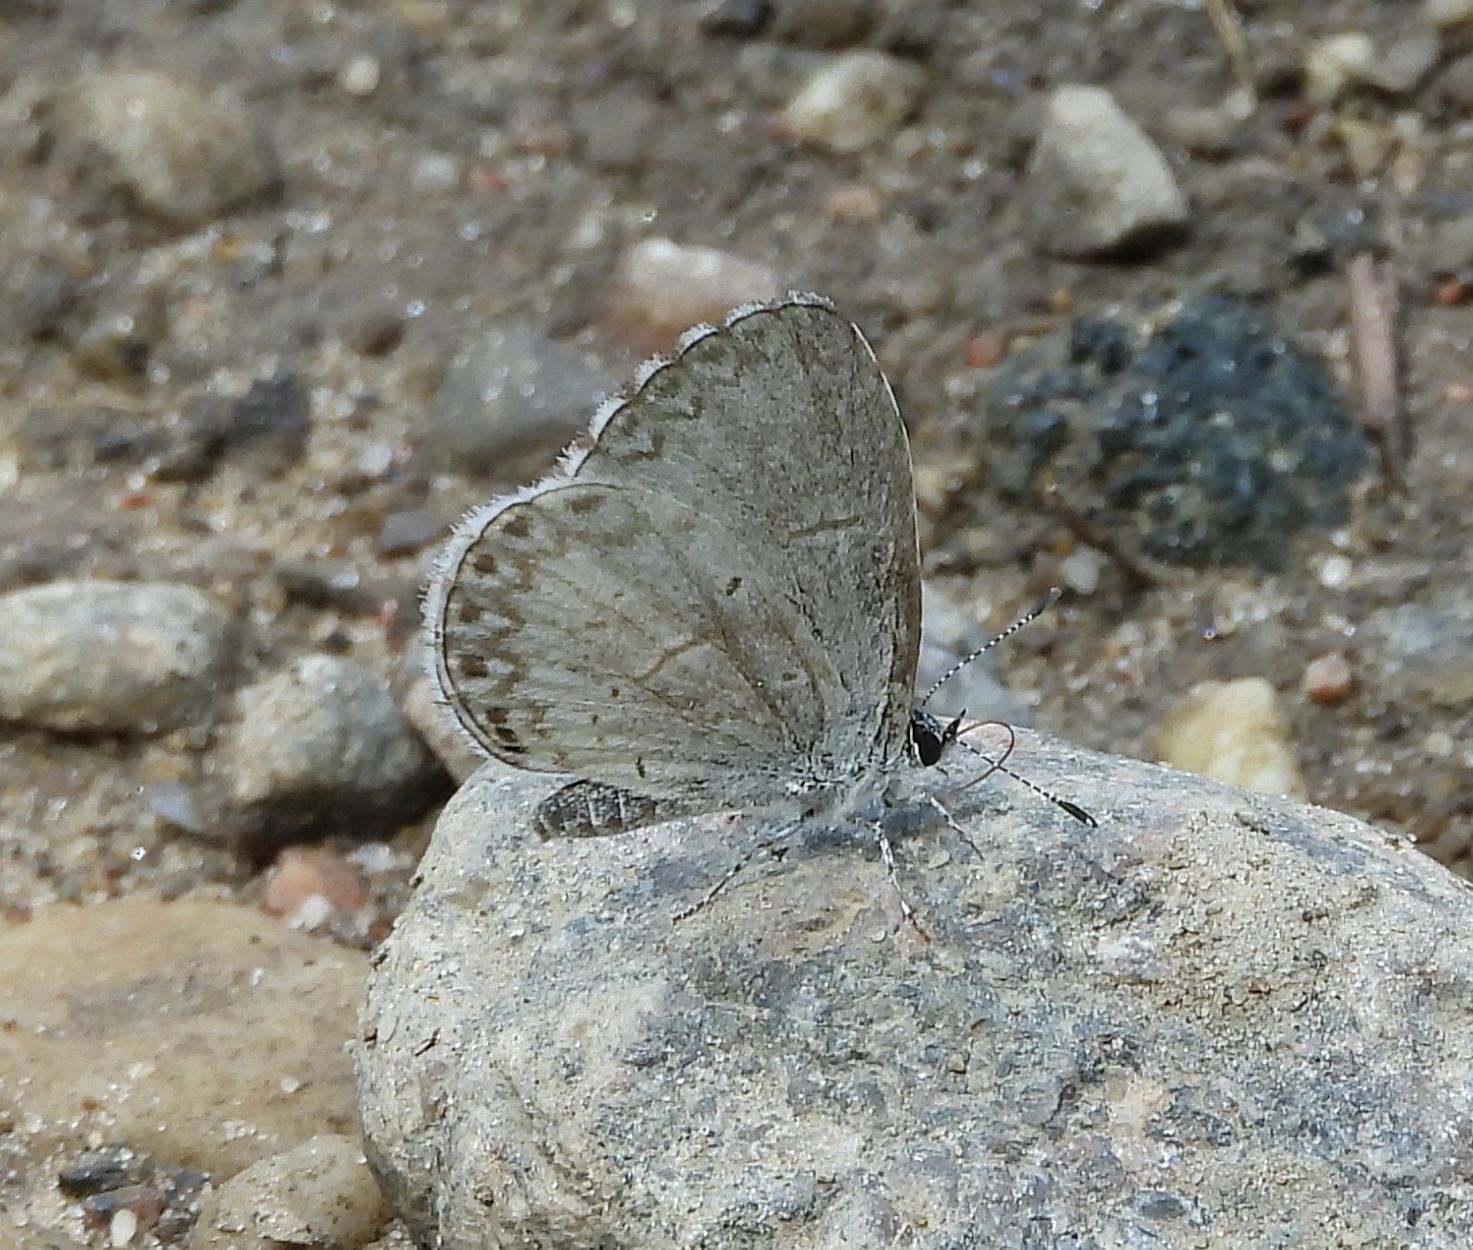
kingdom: Animalia
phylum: Arthropoda
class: Insecta
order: Lepidoptera
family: Lycaenidae
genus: Celastrina
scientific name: Celastrina lucia
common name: Lucia azure
